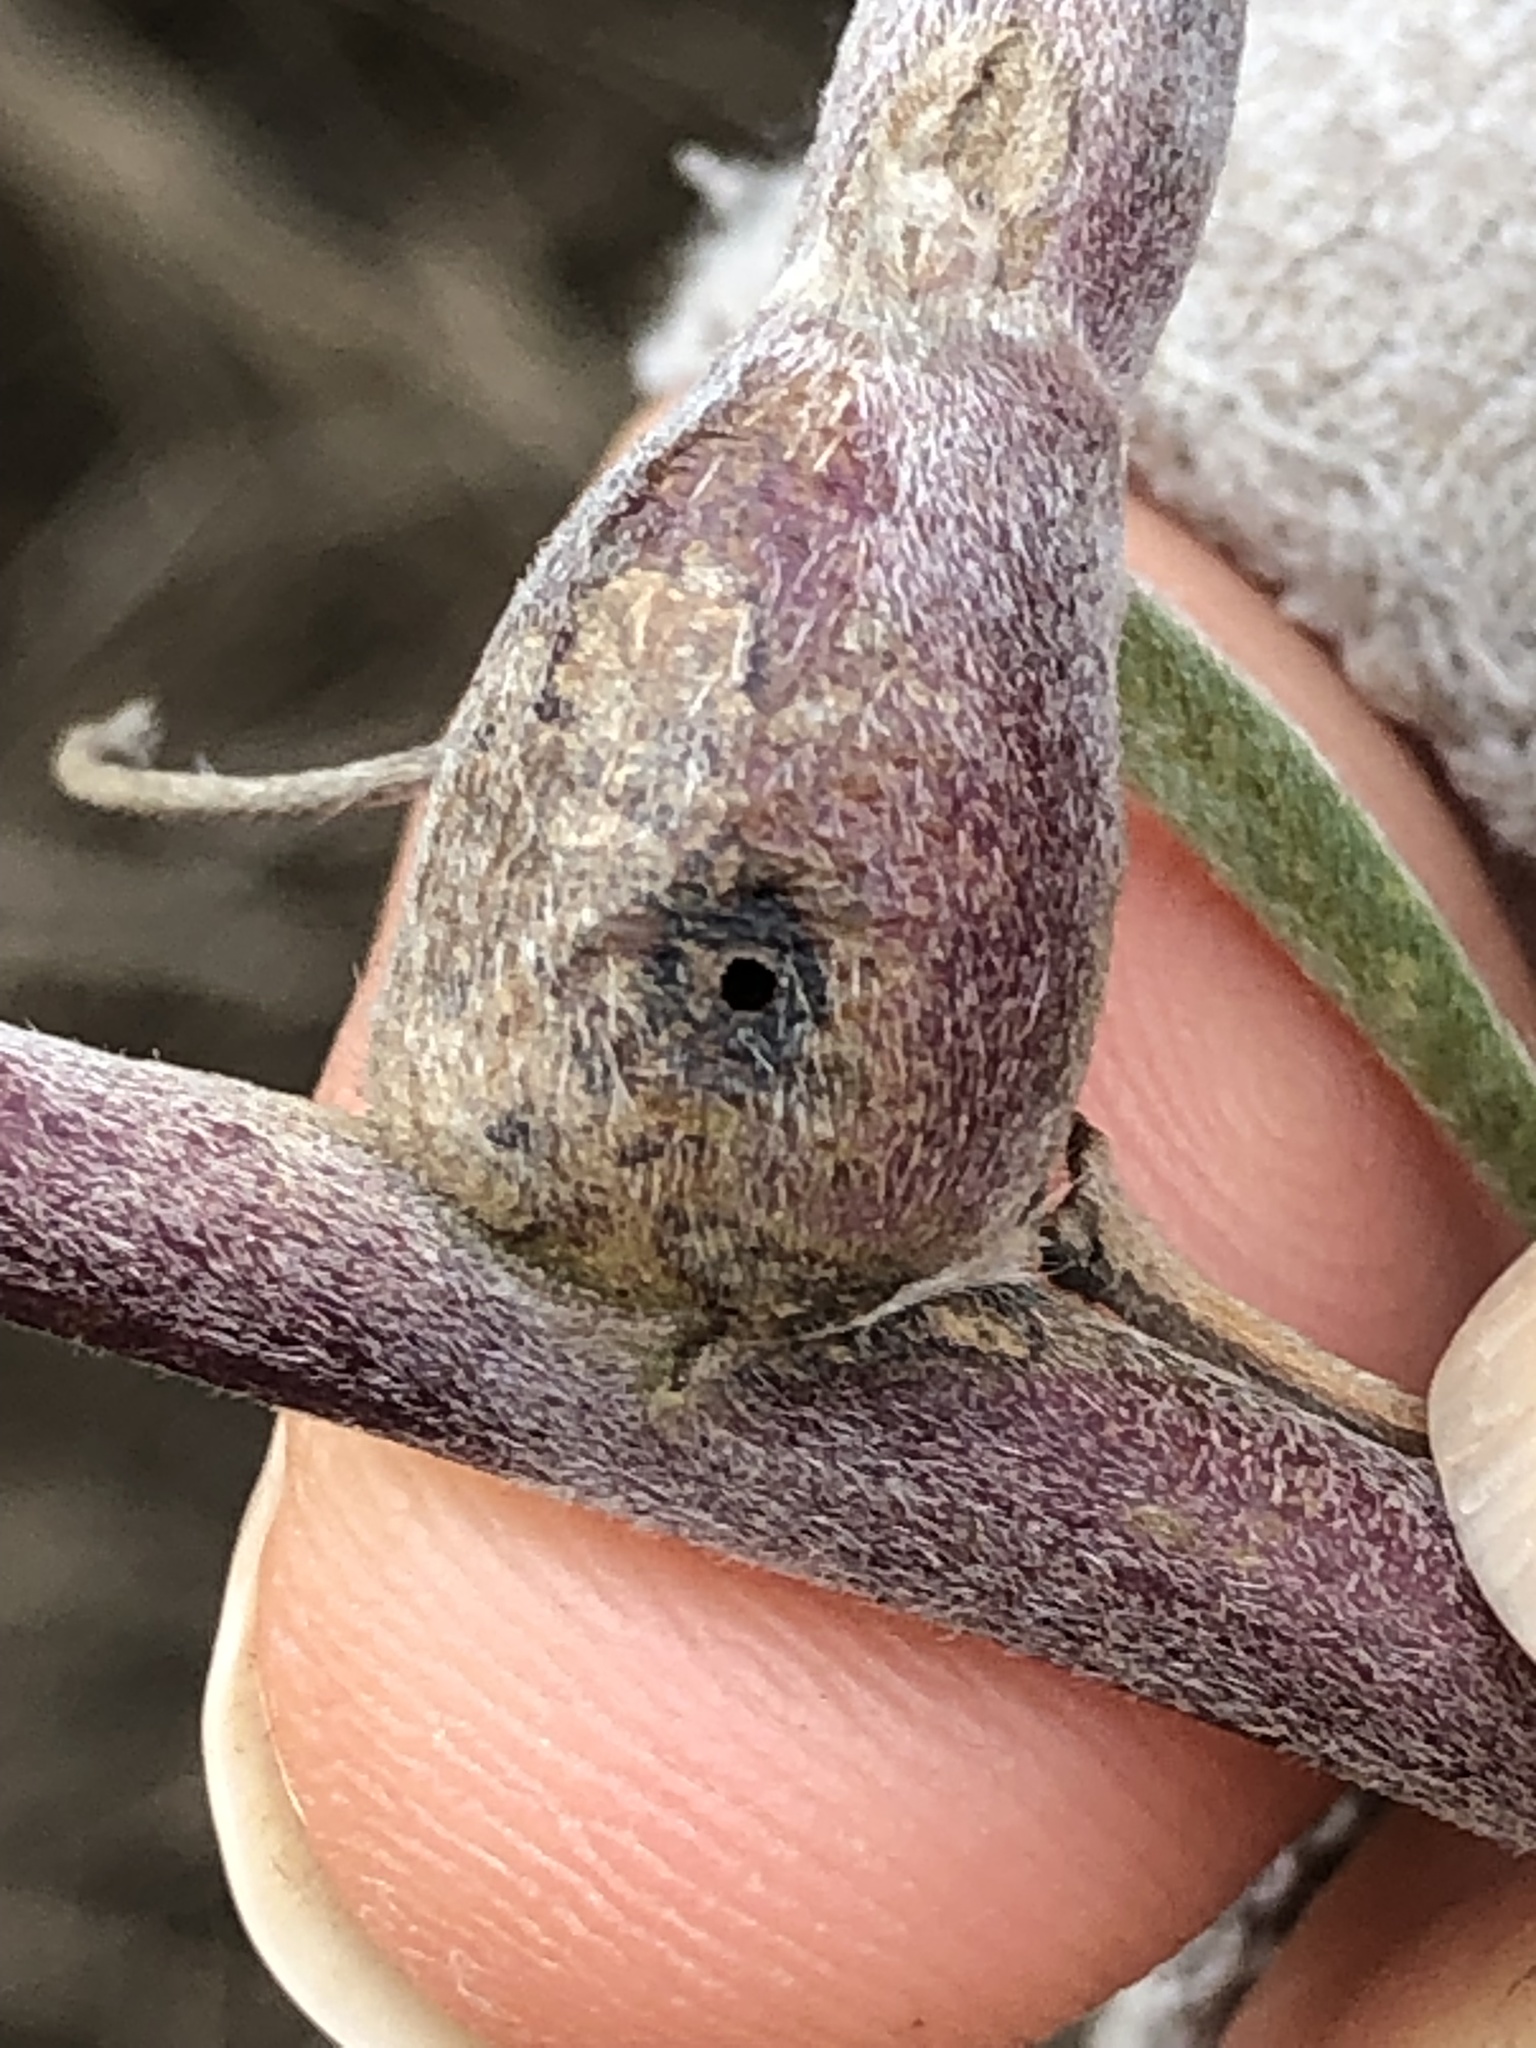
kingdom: Animalia
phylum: Arthropoda
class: Insecta
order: Diptera
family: Cecidomyiidae
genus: Neolasioptera
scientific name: Neolasioptera lupini
